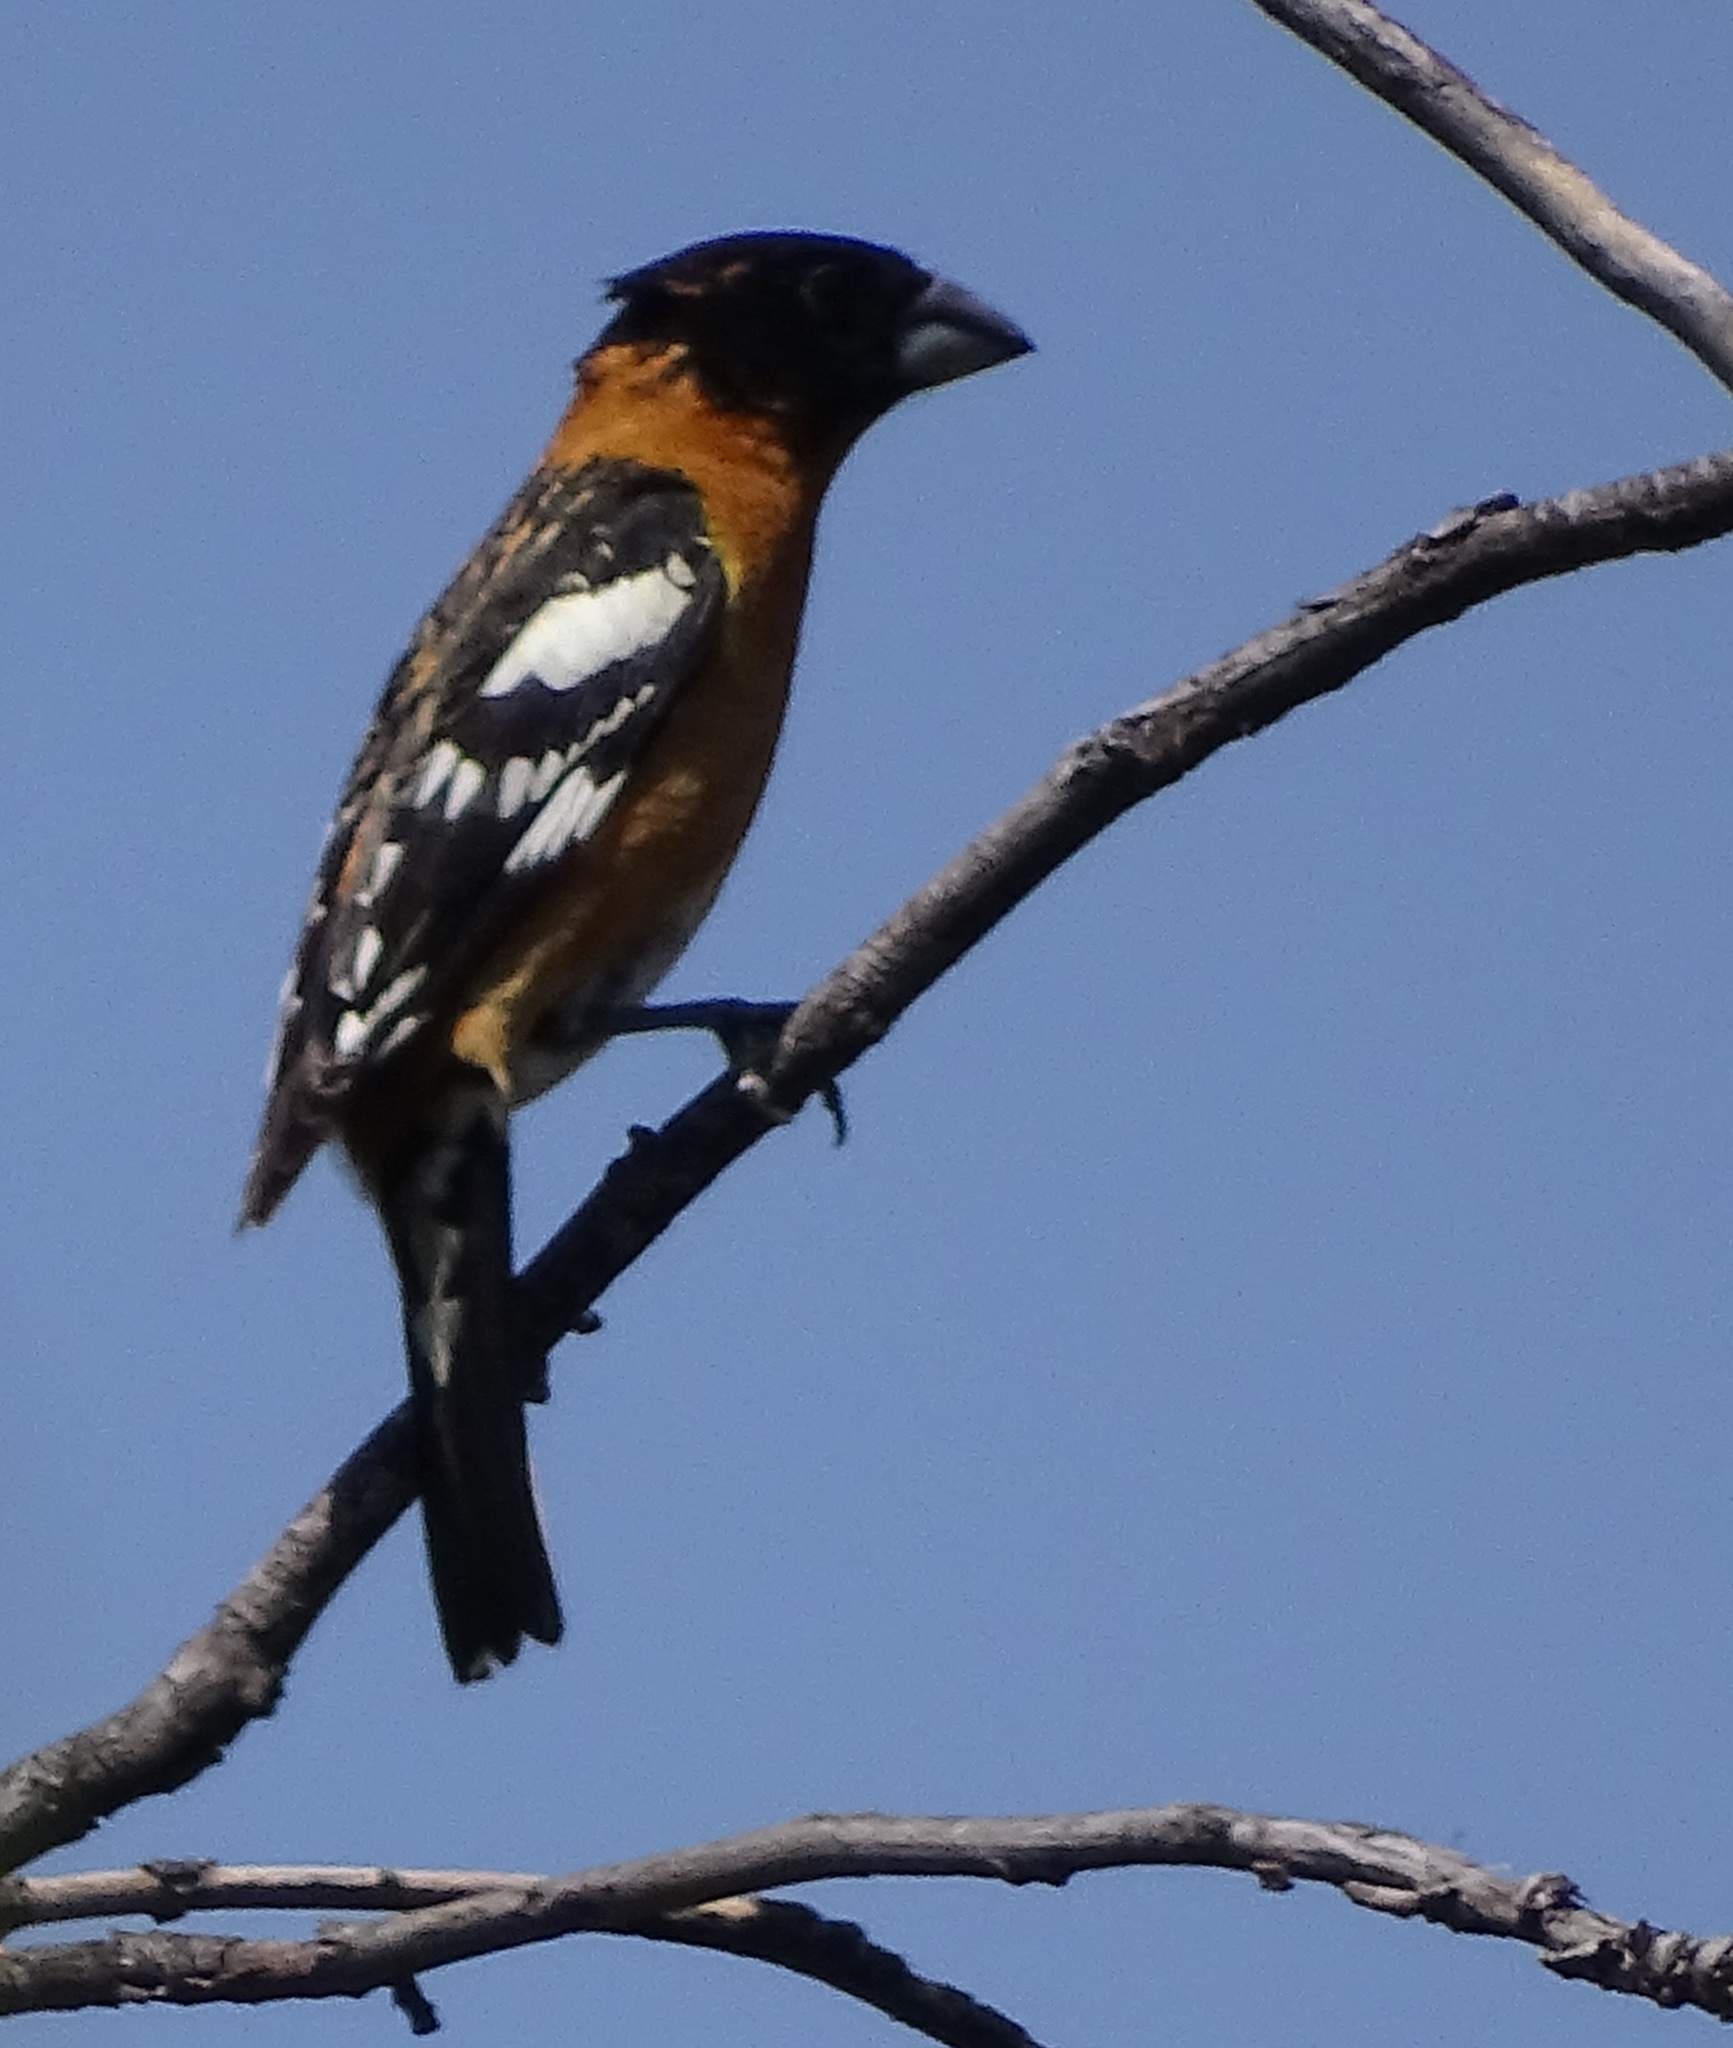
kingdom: Animalia
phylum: Chordata
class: Aves
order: Passeriformes
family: Cardinalidae
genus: Pheucticus
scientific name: Pheucticus melanocephalus
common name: Black-headed grosbeak
